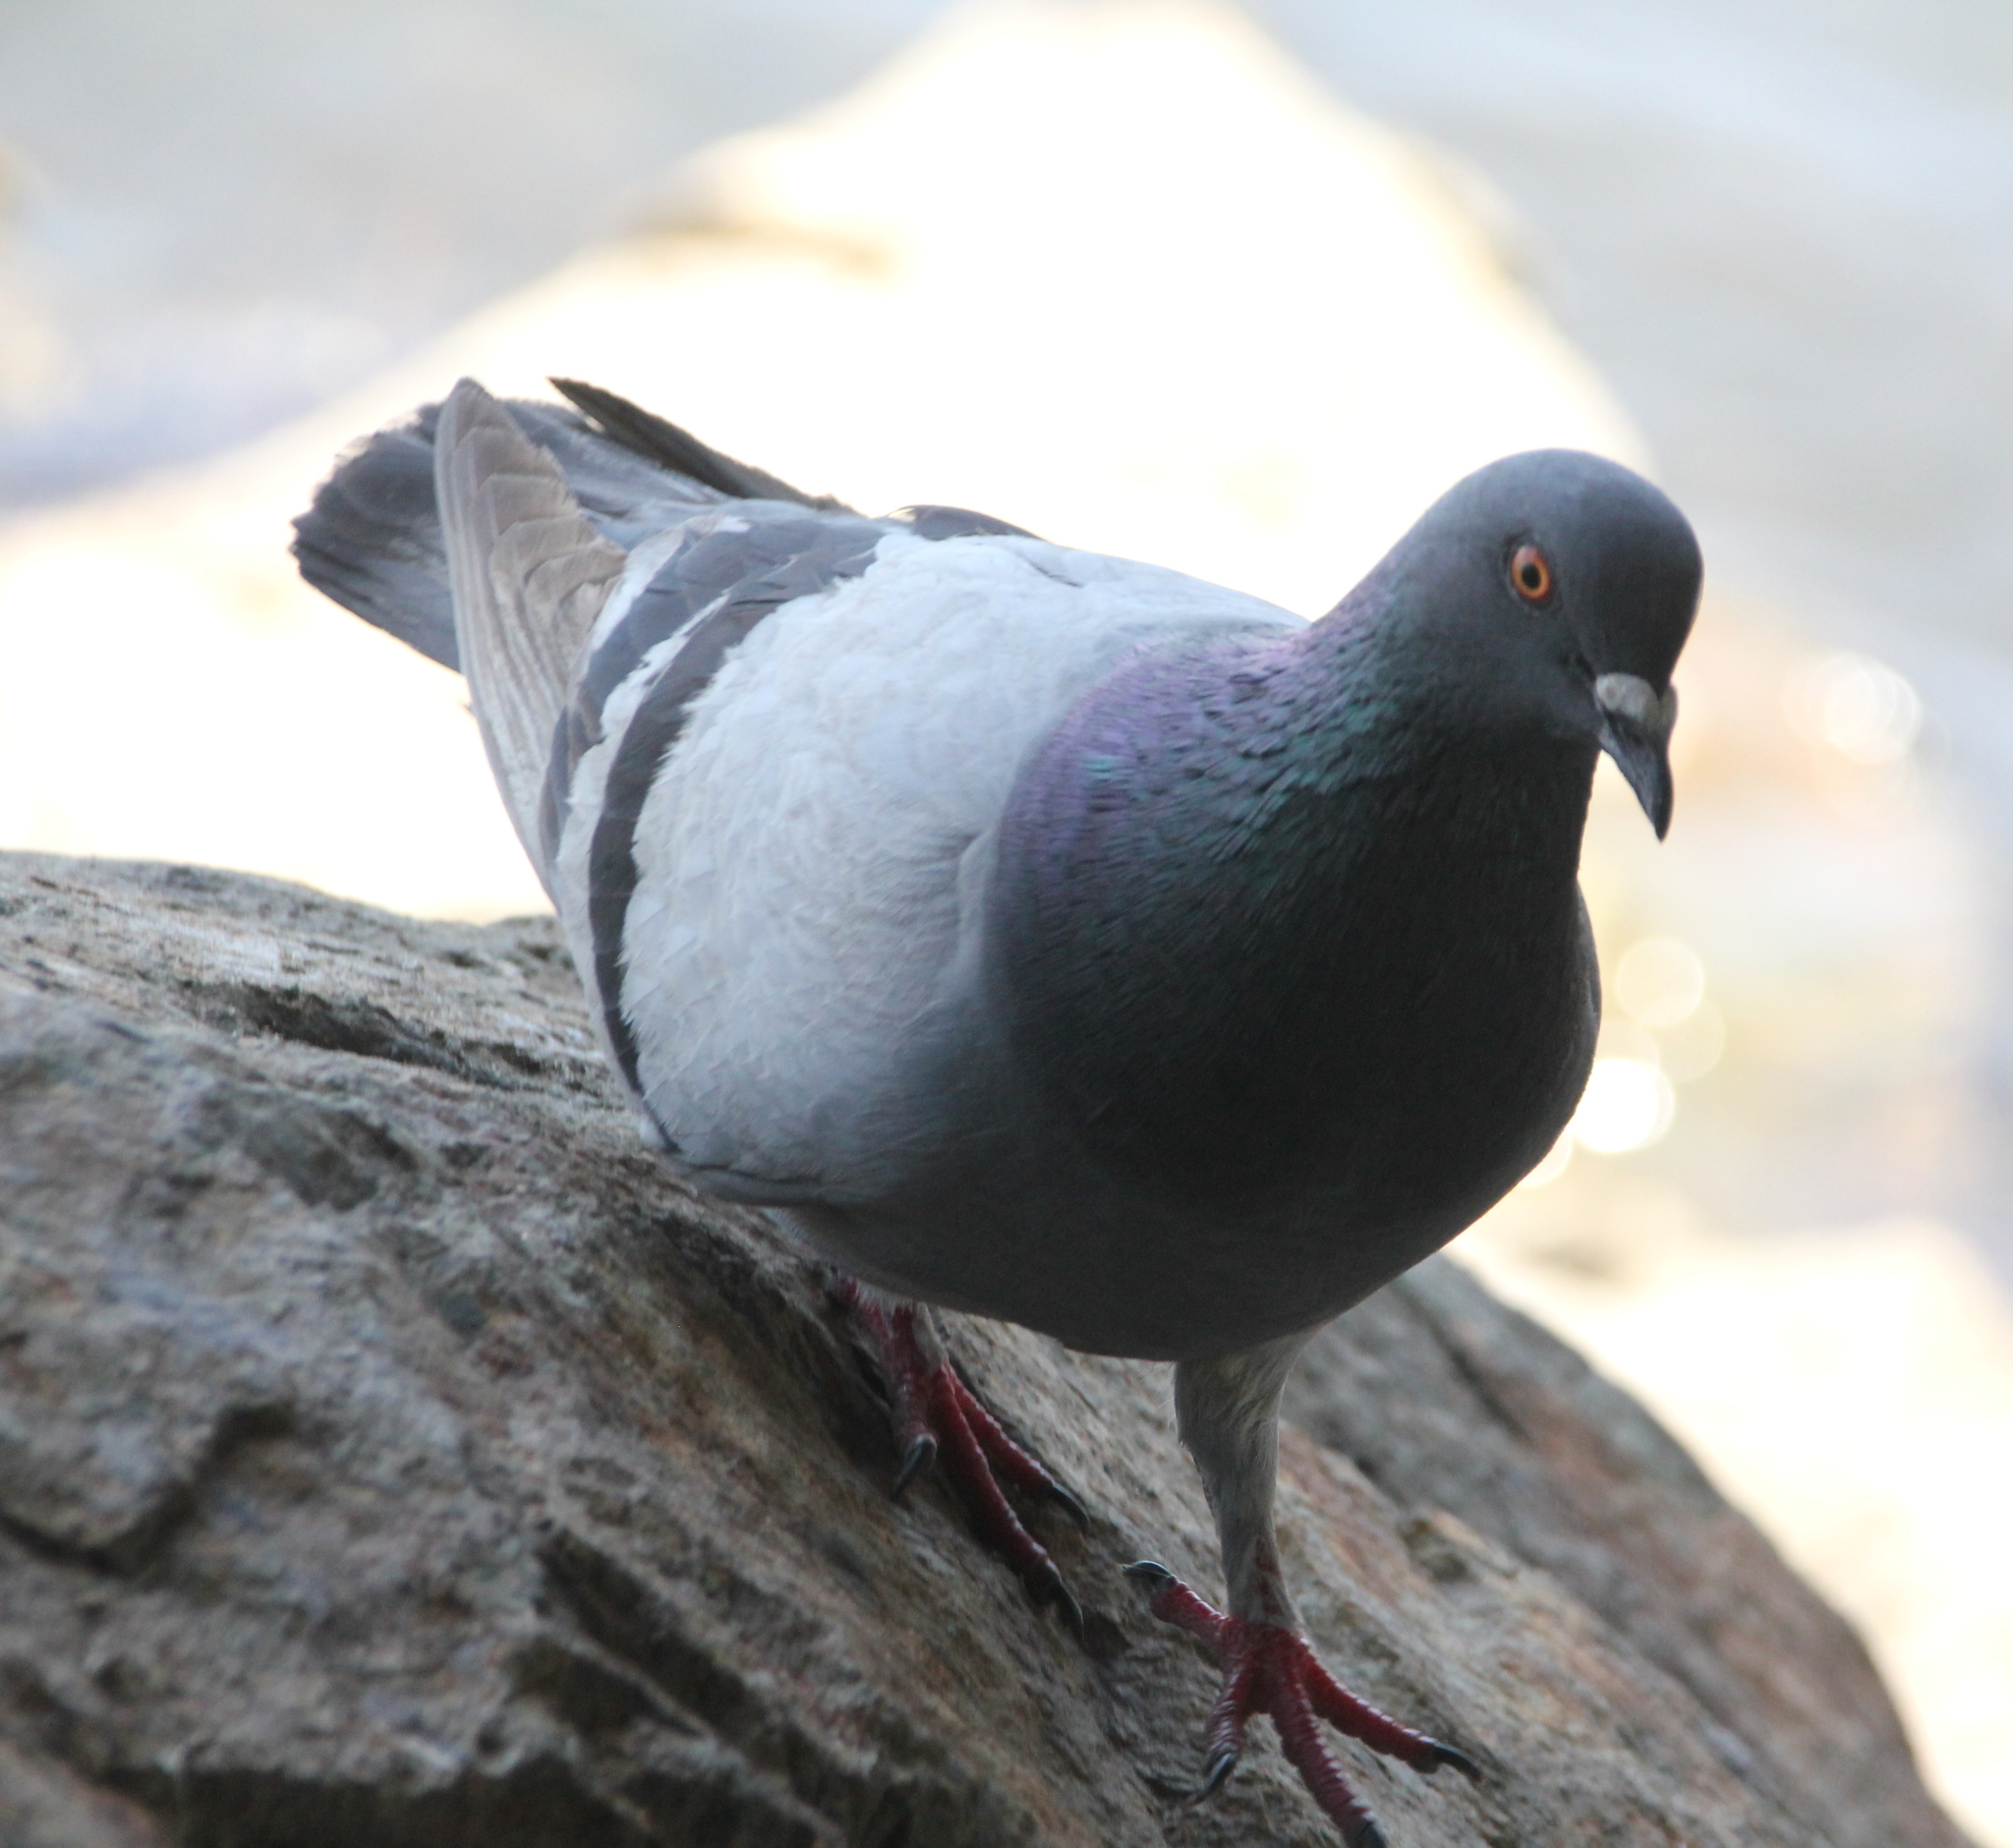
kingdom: Animalia
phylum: Chordata
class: Aves
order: Columbiformes
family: Columbidae
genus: Columba
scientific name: Columba livia
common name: Rock pigeon
